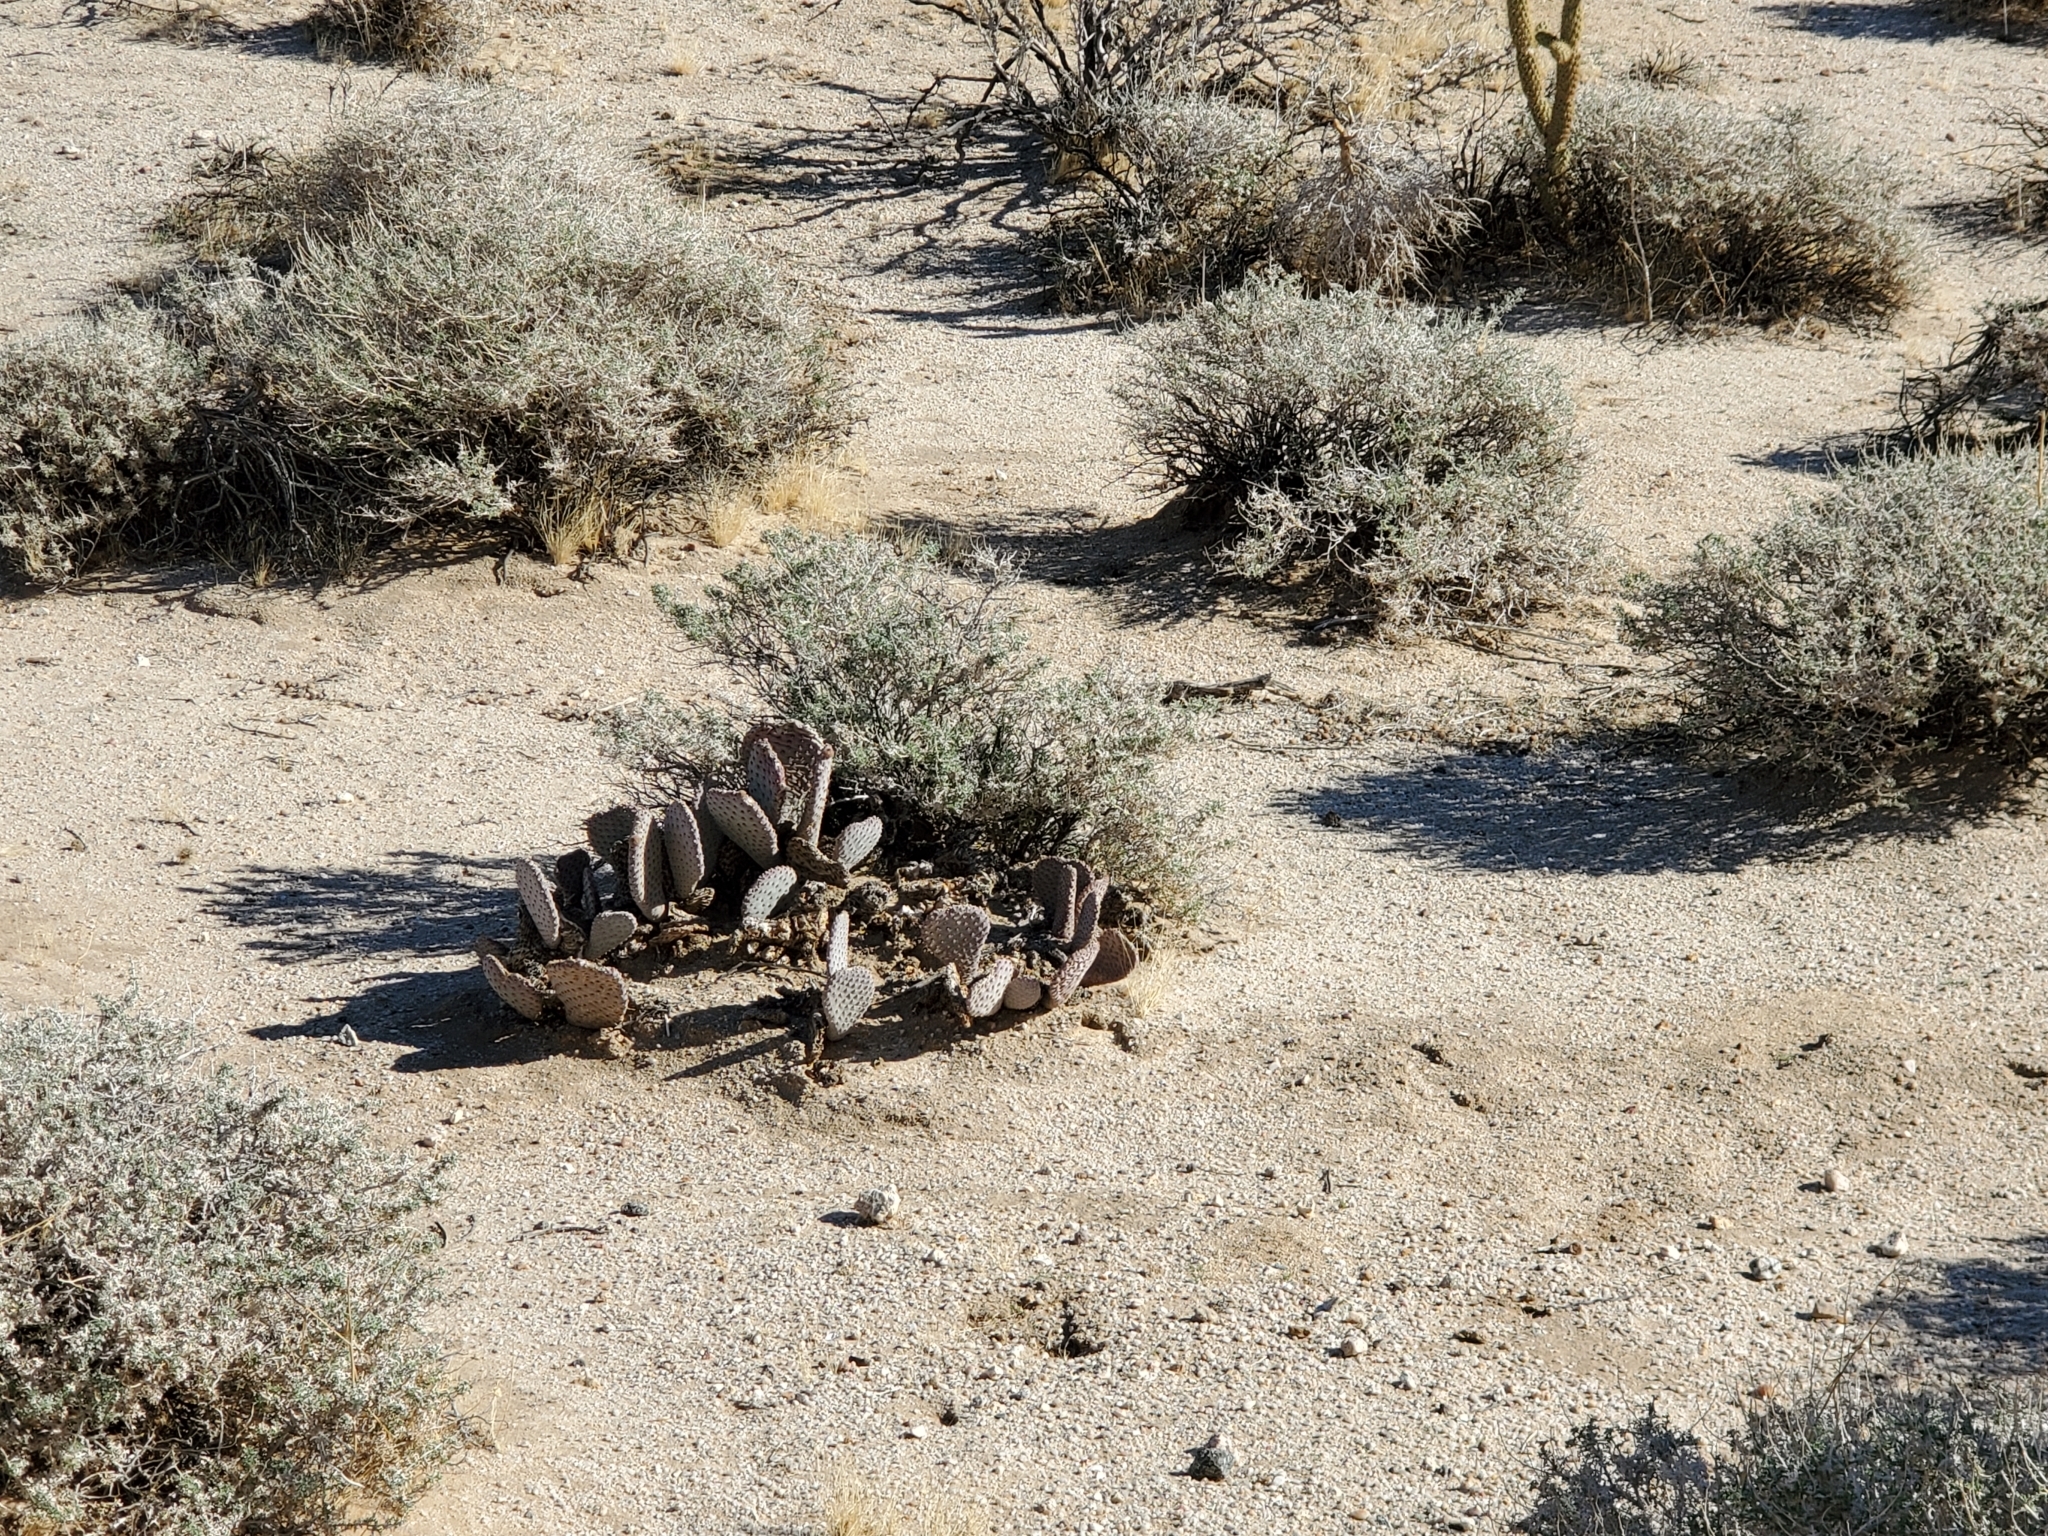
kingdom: Plantae
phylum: Tracheophyta
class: Magnoliopsida
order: Caryophyllales
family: Cactaceae
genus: Opuntia
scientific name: Opuntia basilaris
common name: Beavertail prickly-pear
